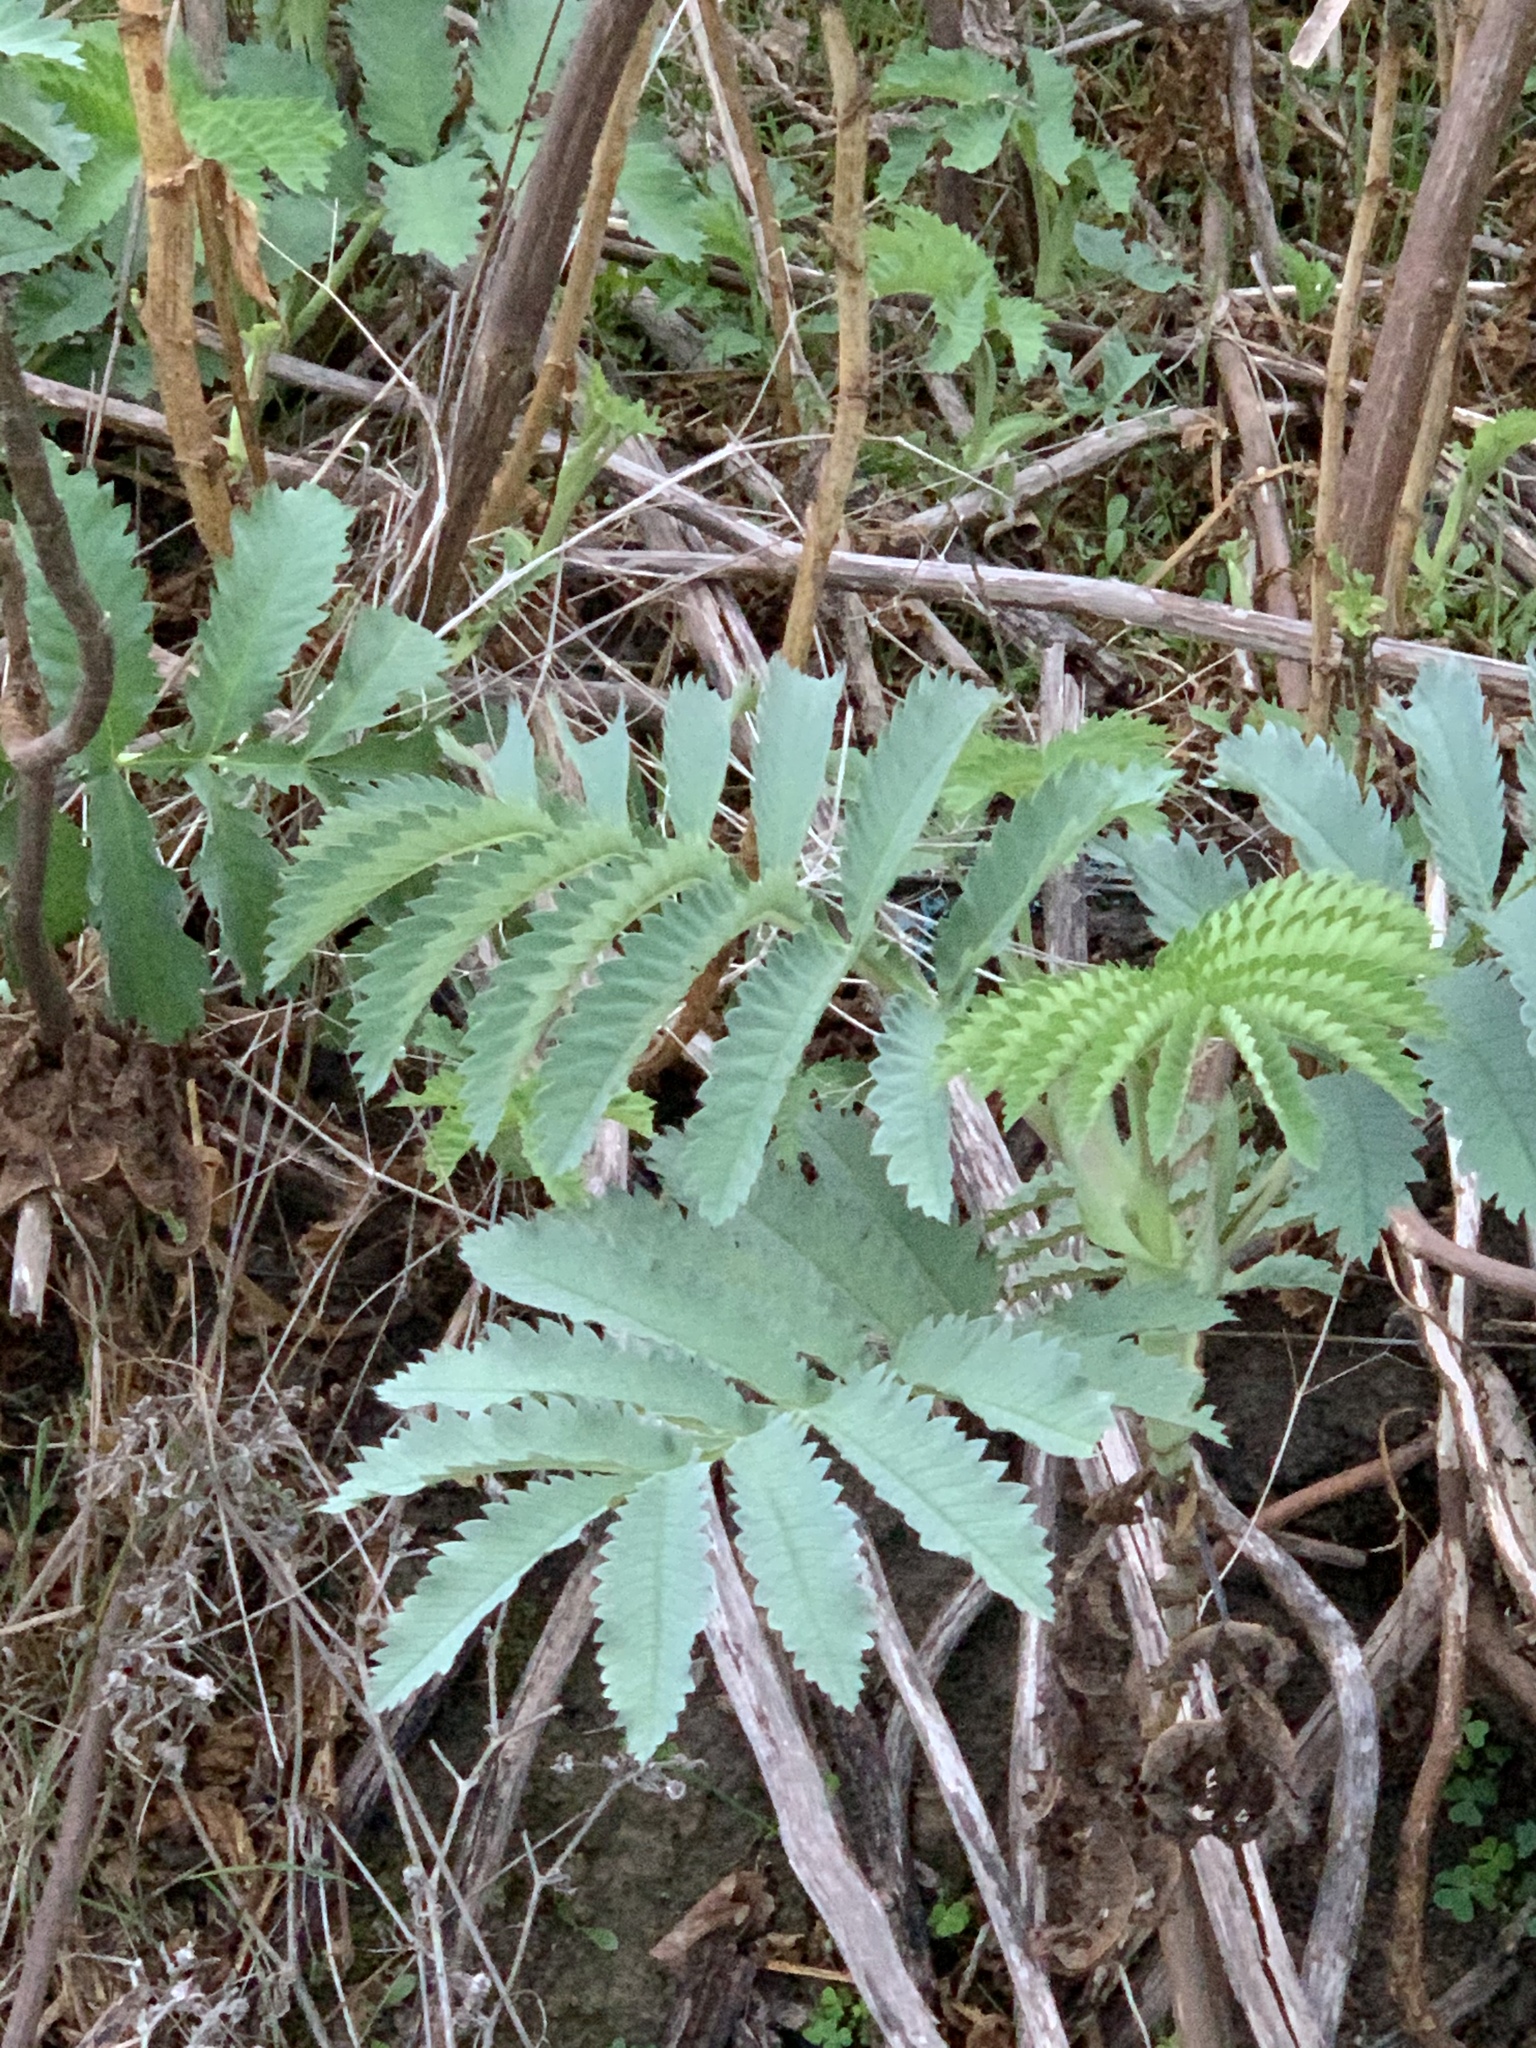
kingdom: Plantae
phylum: Tracheophyta
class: Magnoliopsida
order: Geraniales
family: Melianthaceae
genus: Melianthus
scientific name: Melianthus major
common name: Honey-flower
